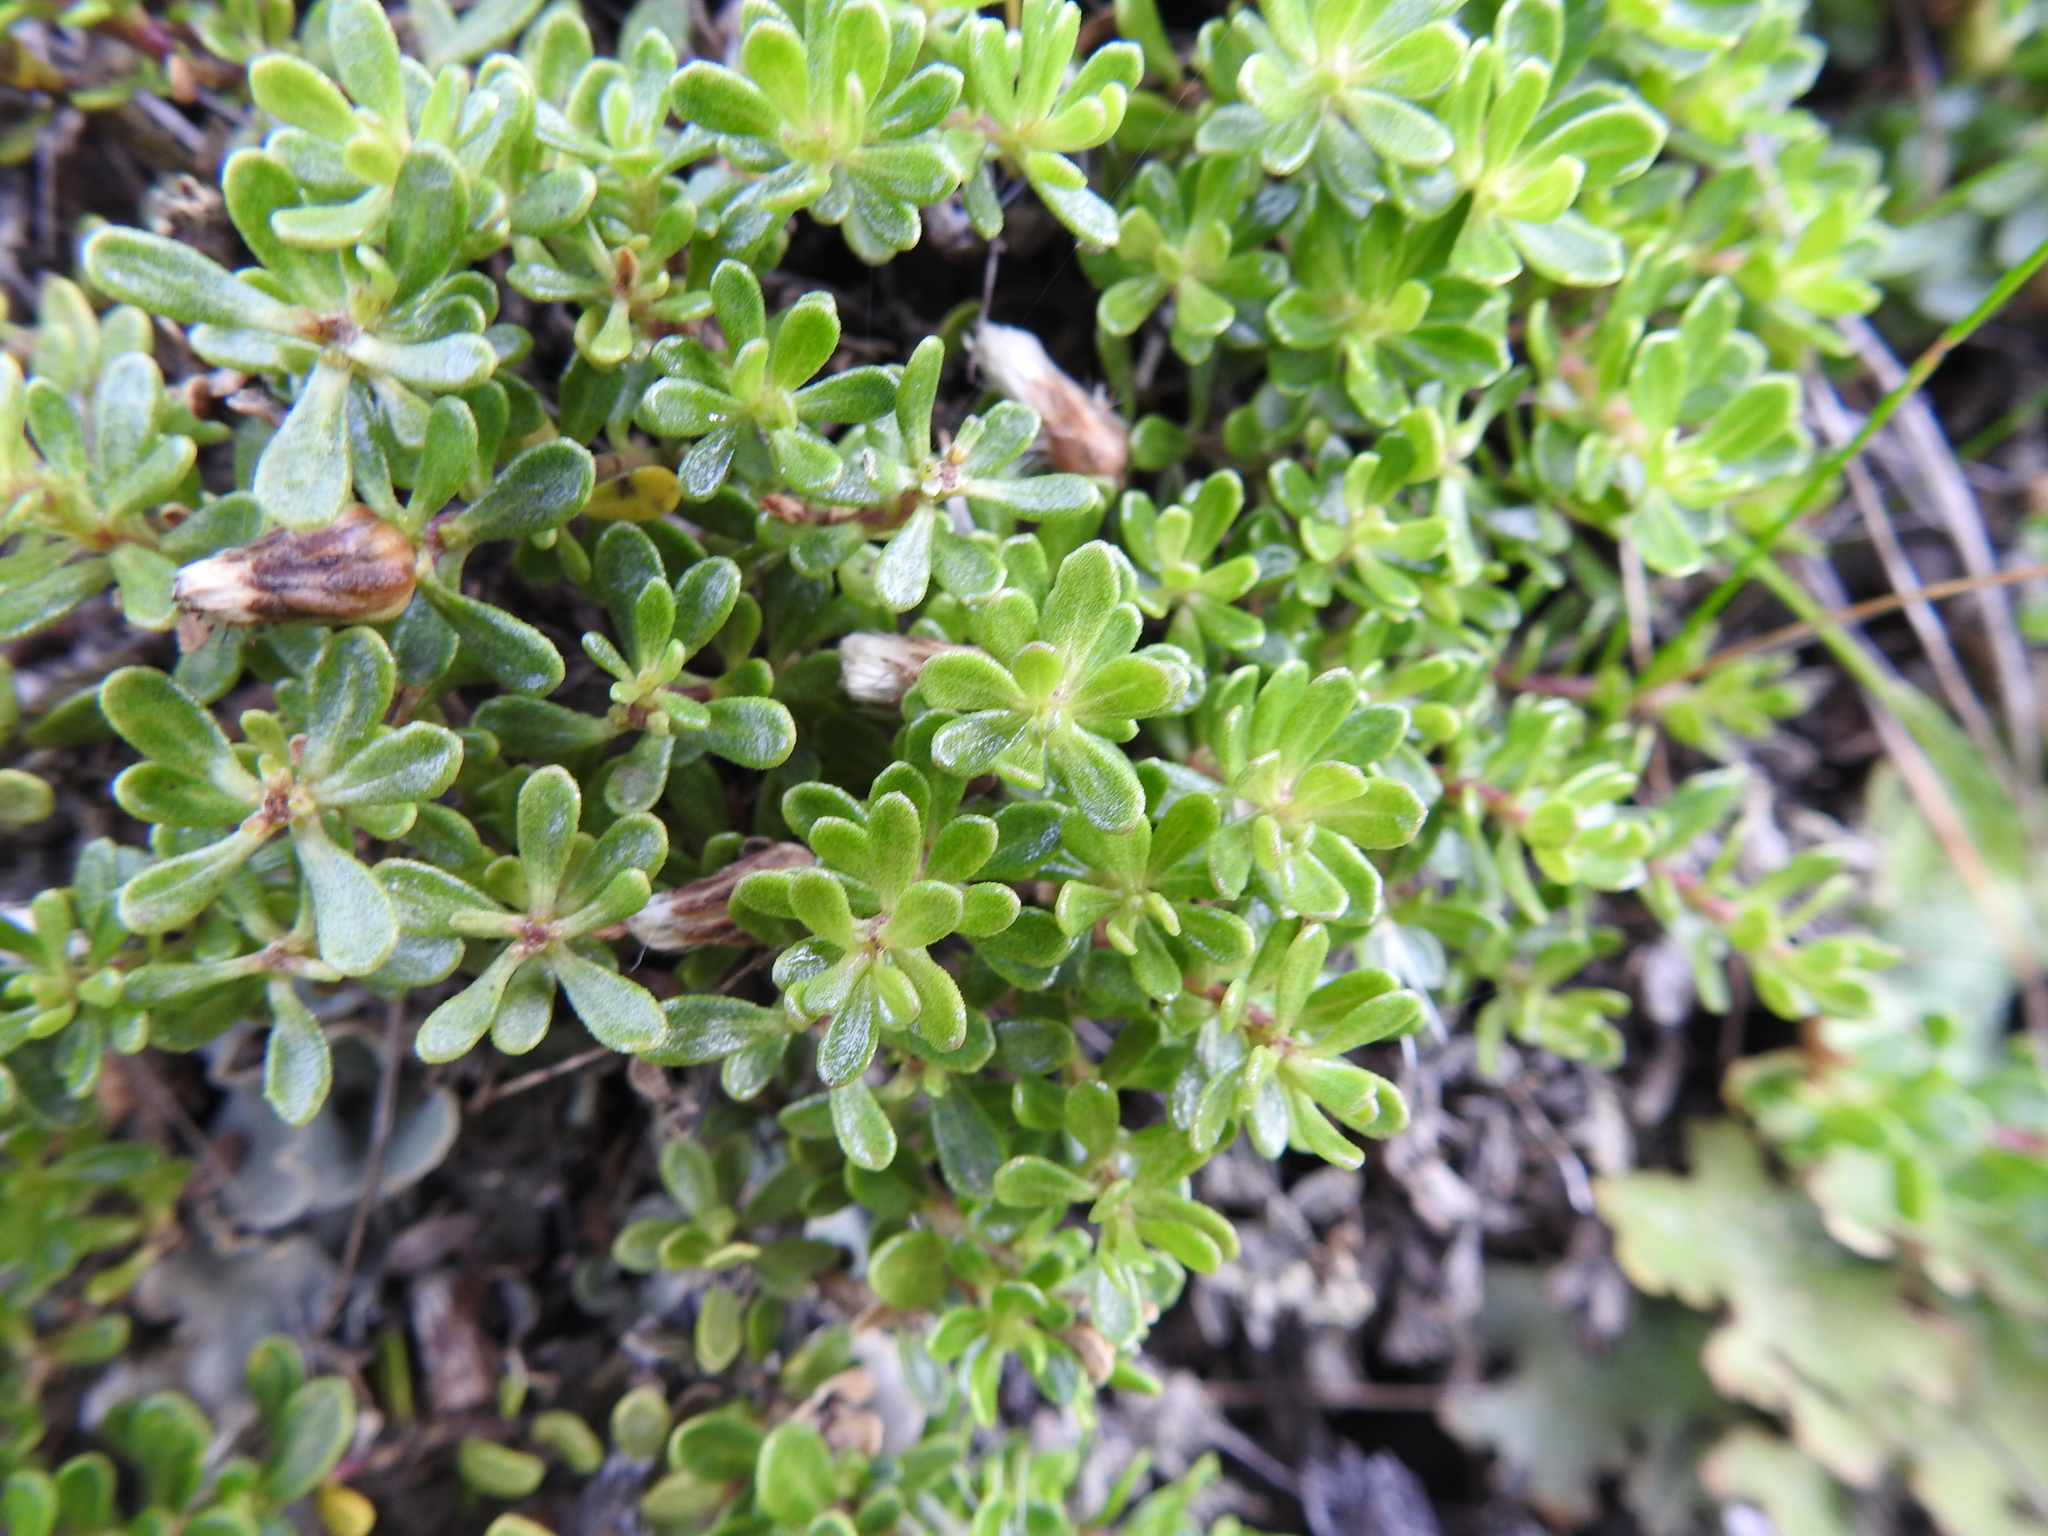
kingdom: Plantae
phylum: Tracheophyta
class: Magnoliopsida
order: Asterales
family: Asteraceae
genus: Baccharis
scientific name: Baccharis magellanica
